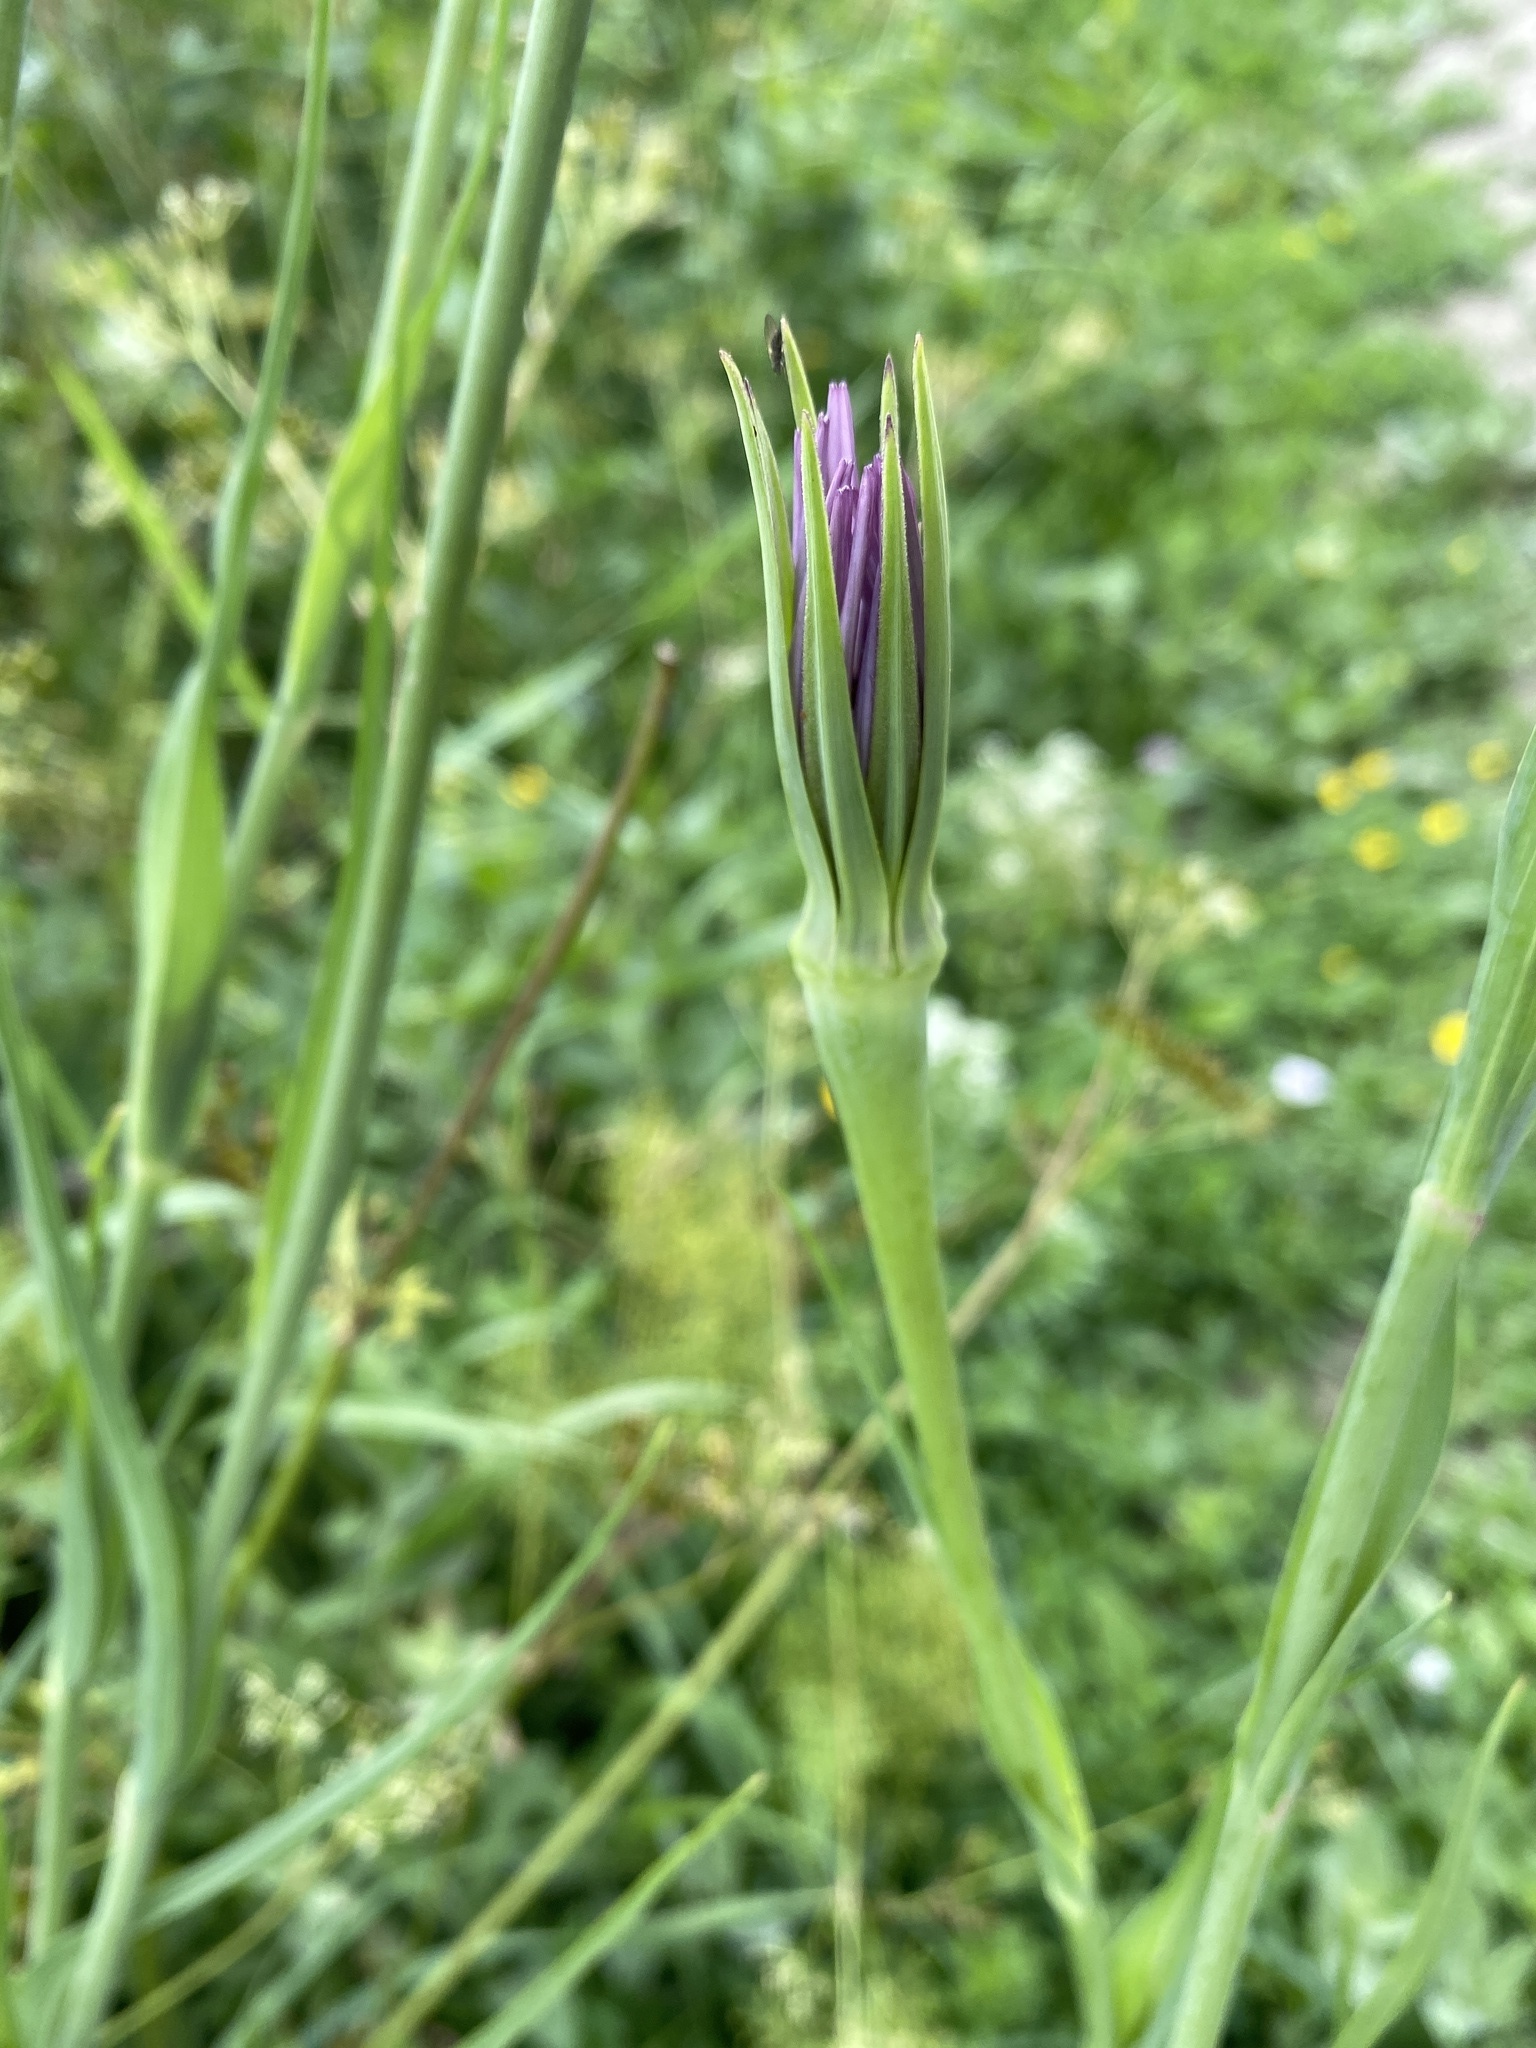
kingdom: Plantae
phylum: Tracheophyta
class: Magnoliopsida
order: Asterales
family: Asteraceae
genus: Tragopogon
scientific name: Tragopogon porrifolius
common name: Salsify
